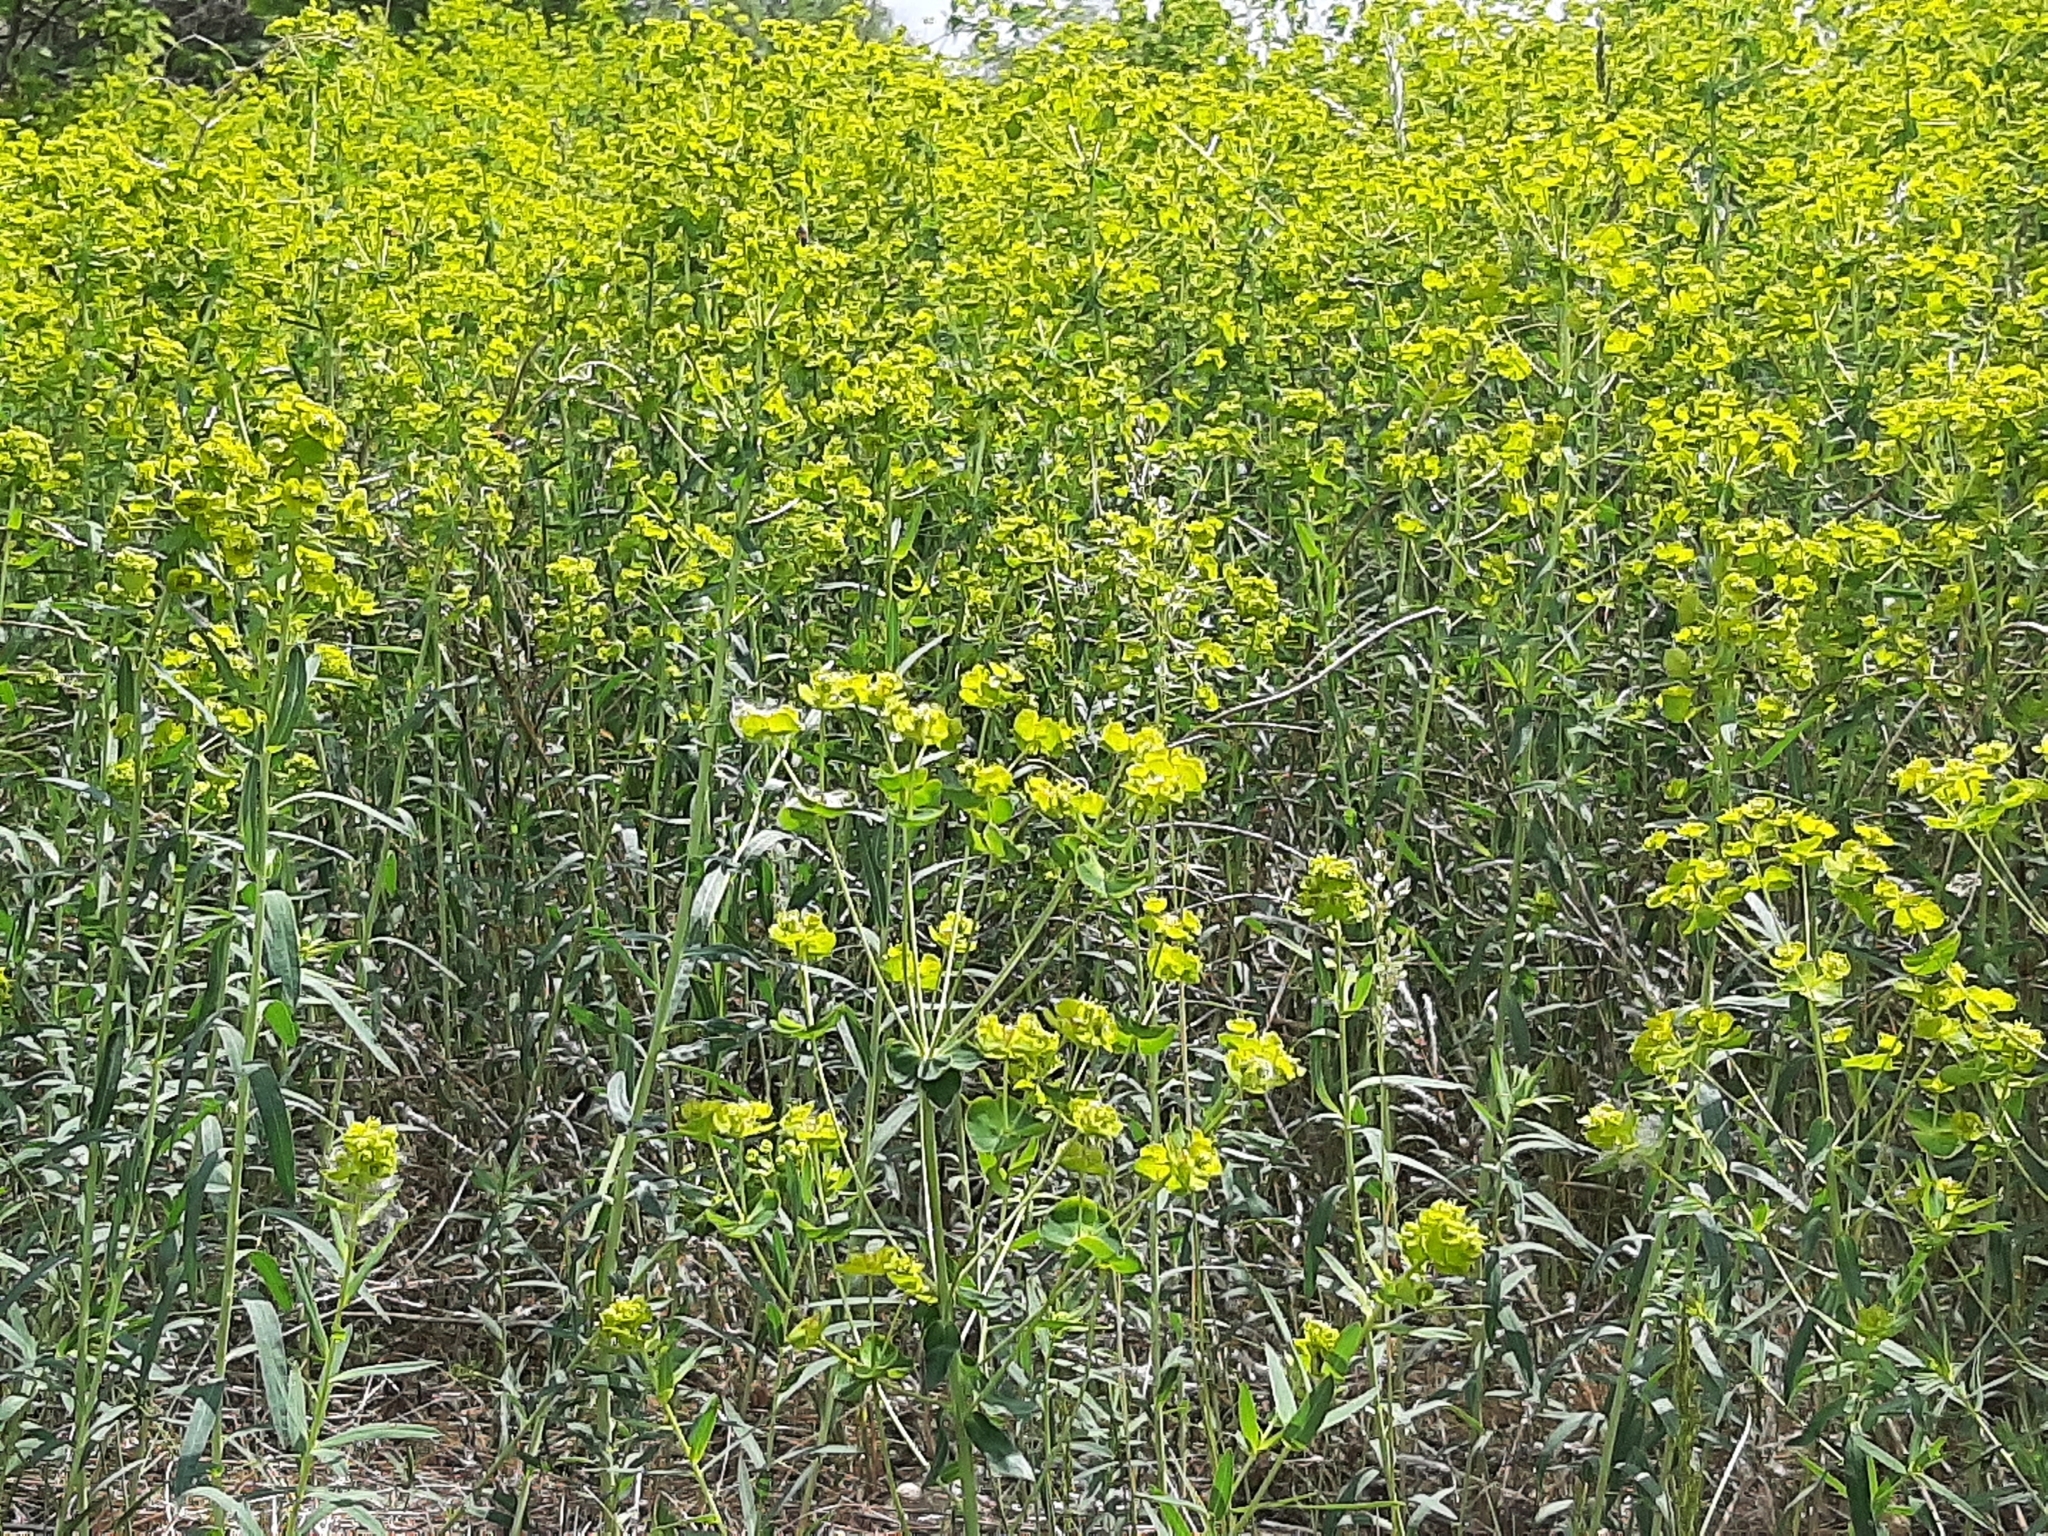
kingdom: Plantae
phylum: Tracheophyta
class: Magnoliopsida
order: Malpighiales
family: Euphorbiaceae
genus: Euphorbia
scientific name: Euphorbia virgata
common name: Leafy spurge
